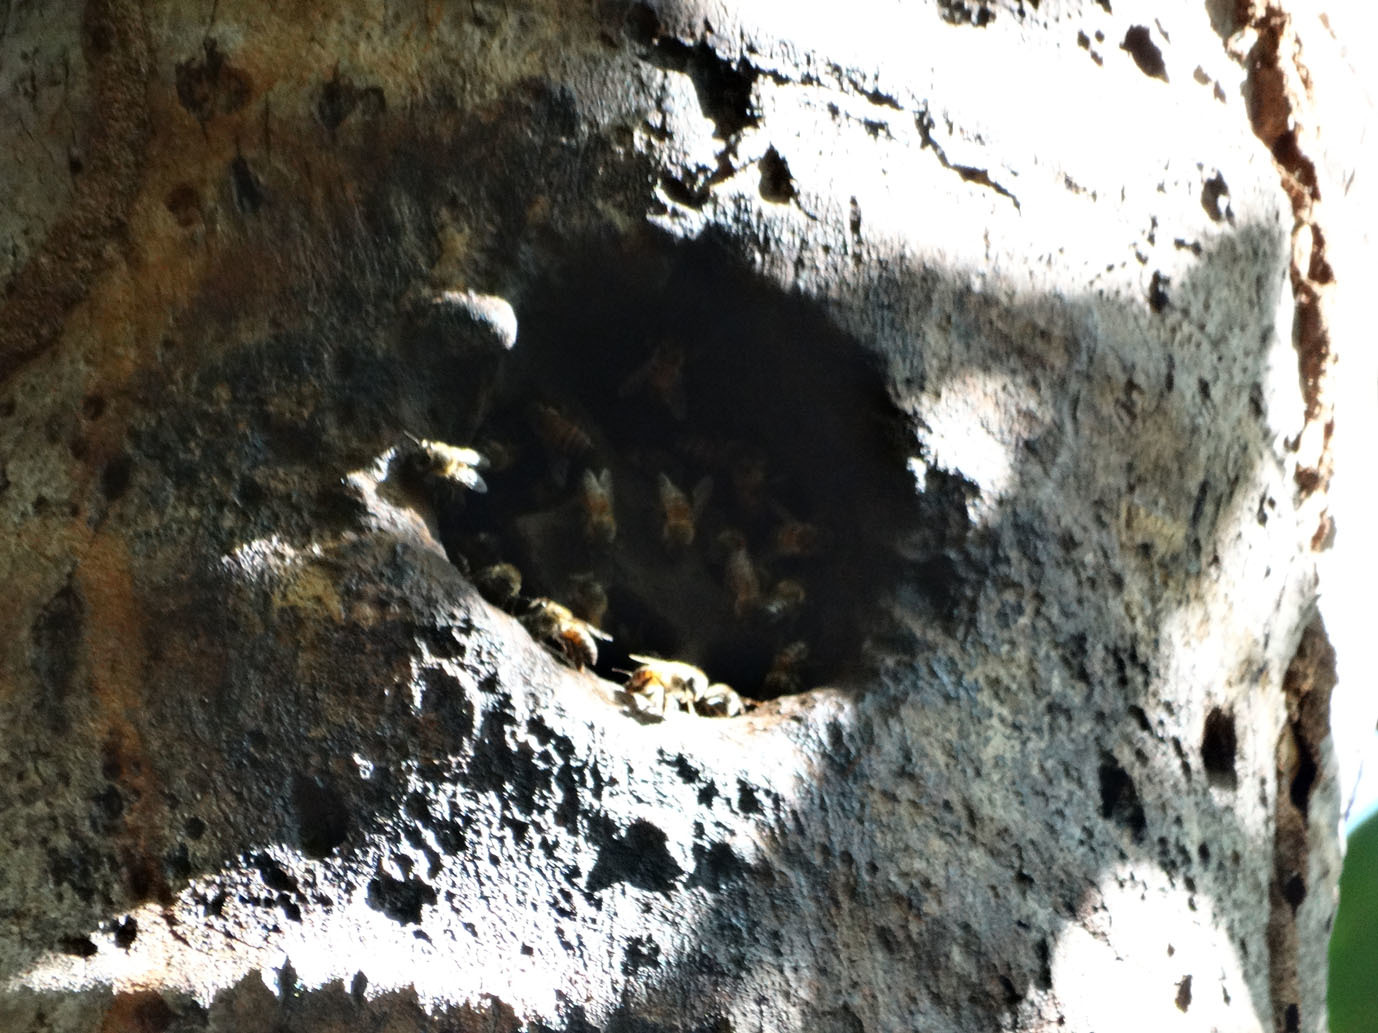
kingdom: Animalia
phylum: Arthropoda
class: Insecta
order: Hymenoptera
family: Apidae
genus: Apis
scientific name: Apis mellifera
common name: Honey bee
